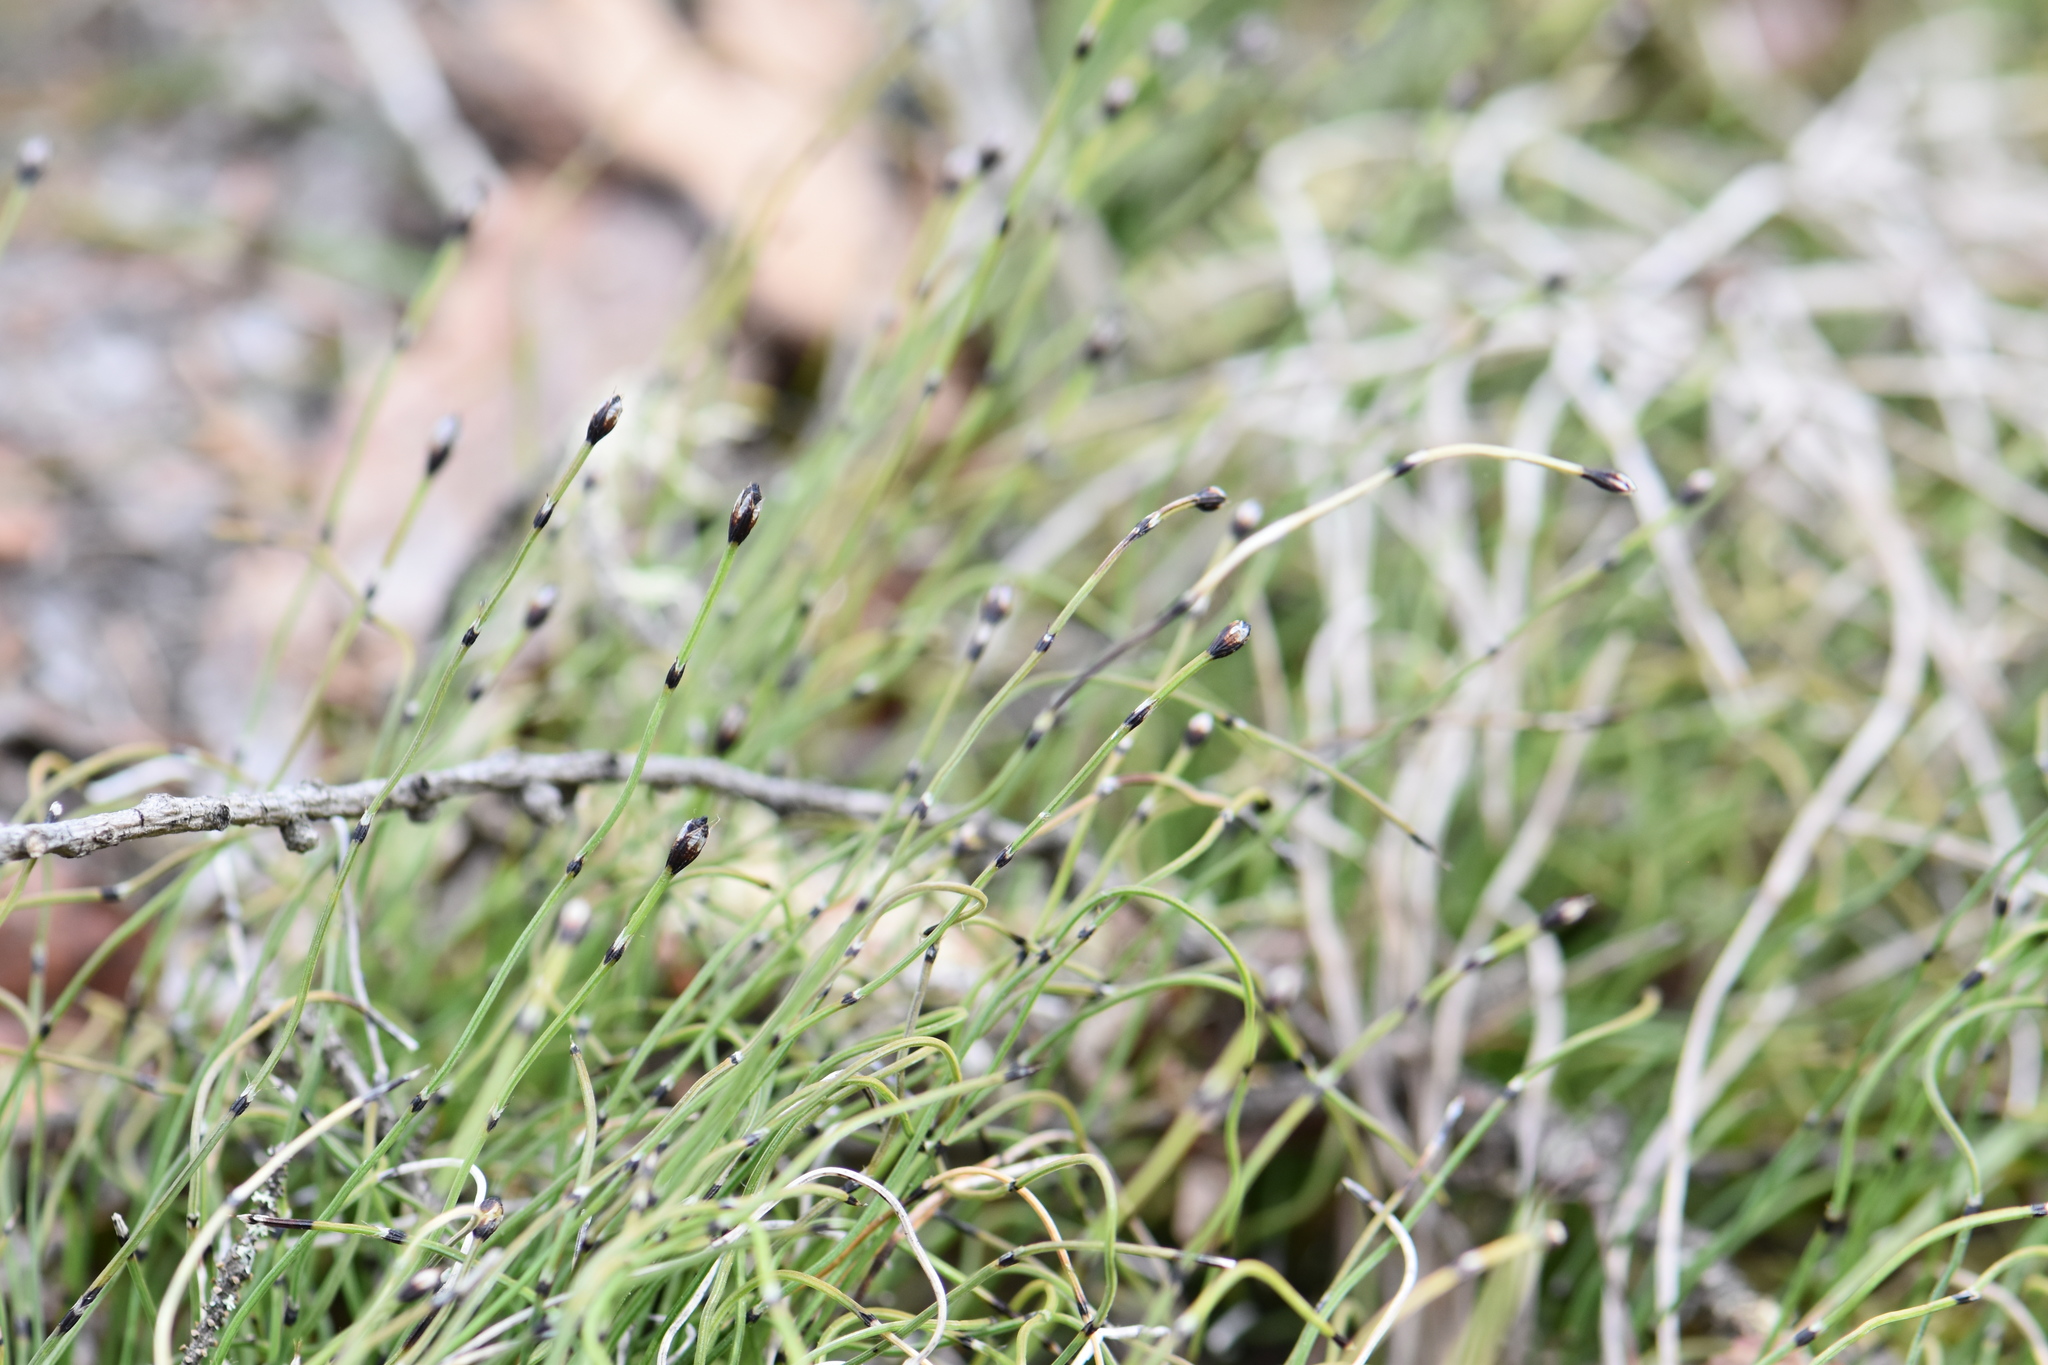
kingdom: Plantae
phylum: Tracheophyta
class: Polypodiopsida
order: Equisetales
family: Equisetaceae
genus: Equisetum
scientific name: Equisetum scirpoides
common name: Delicate horsetail
